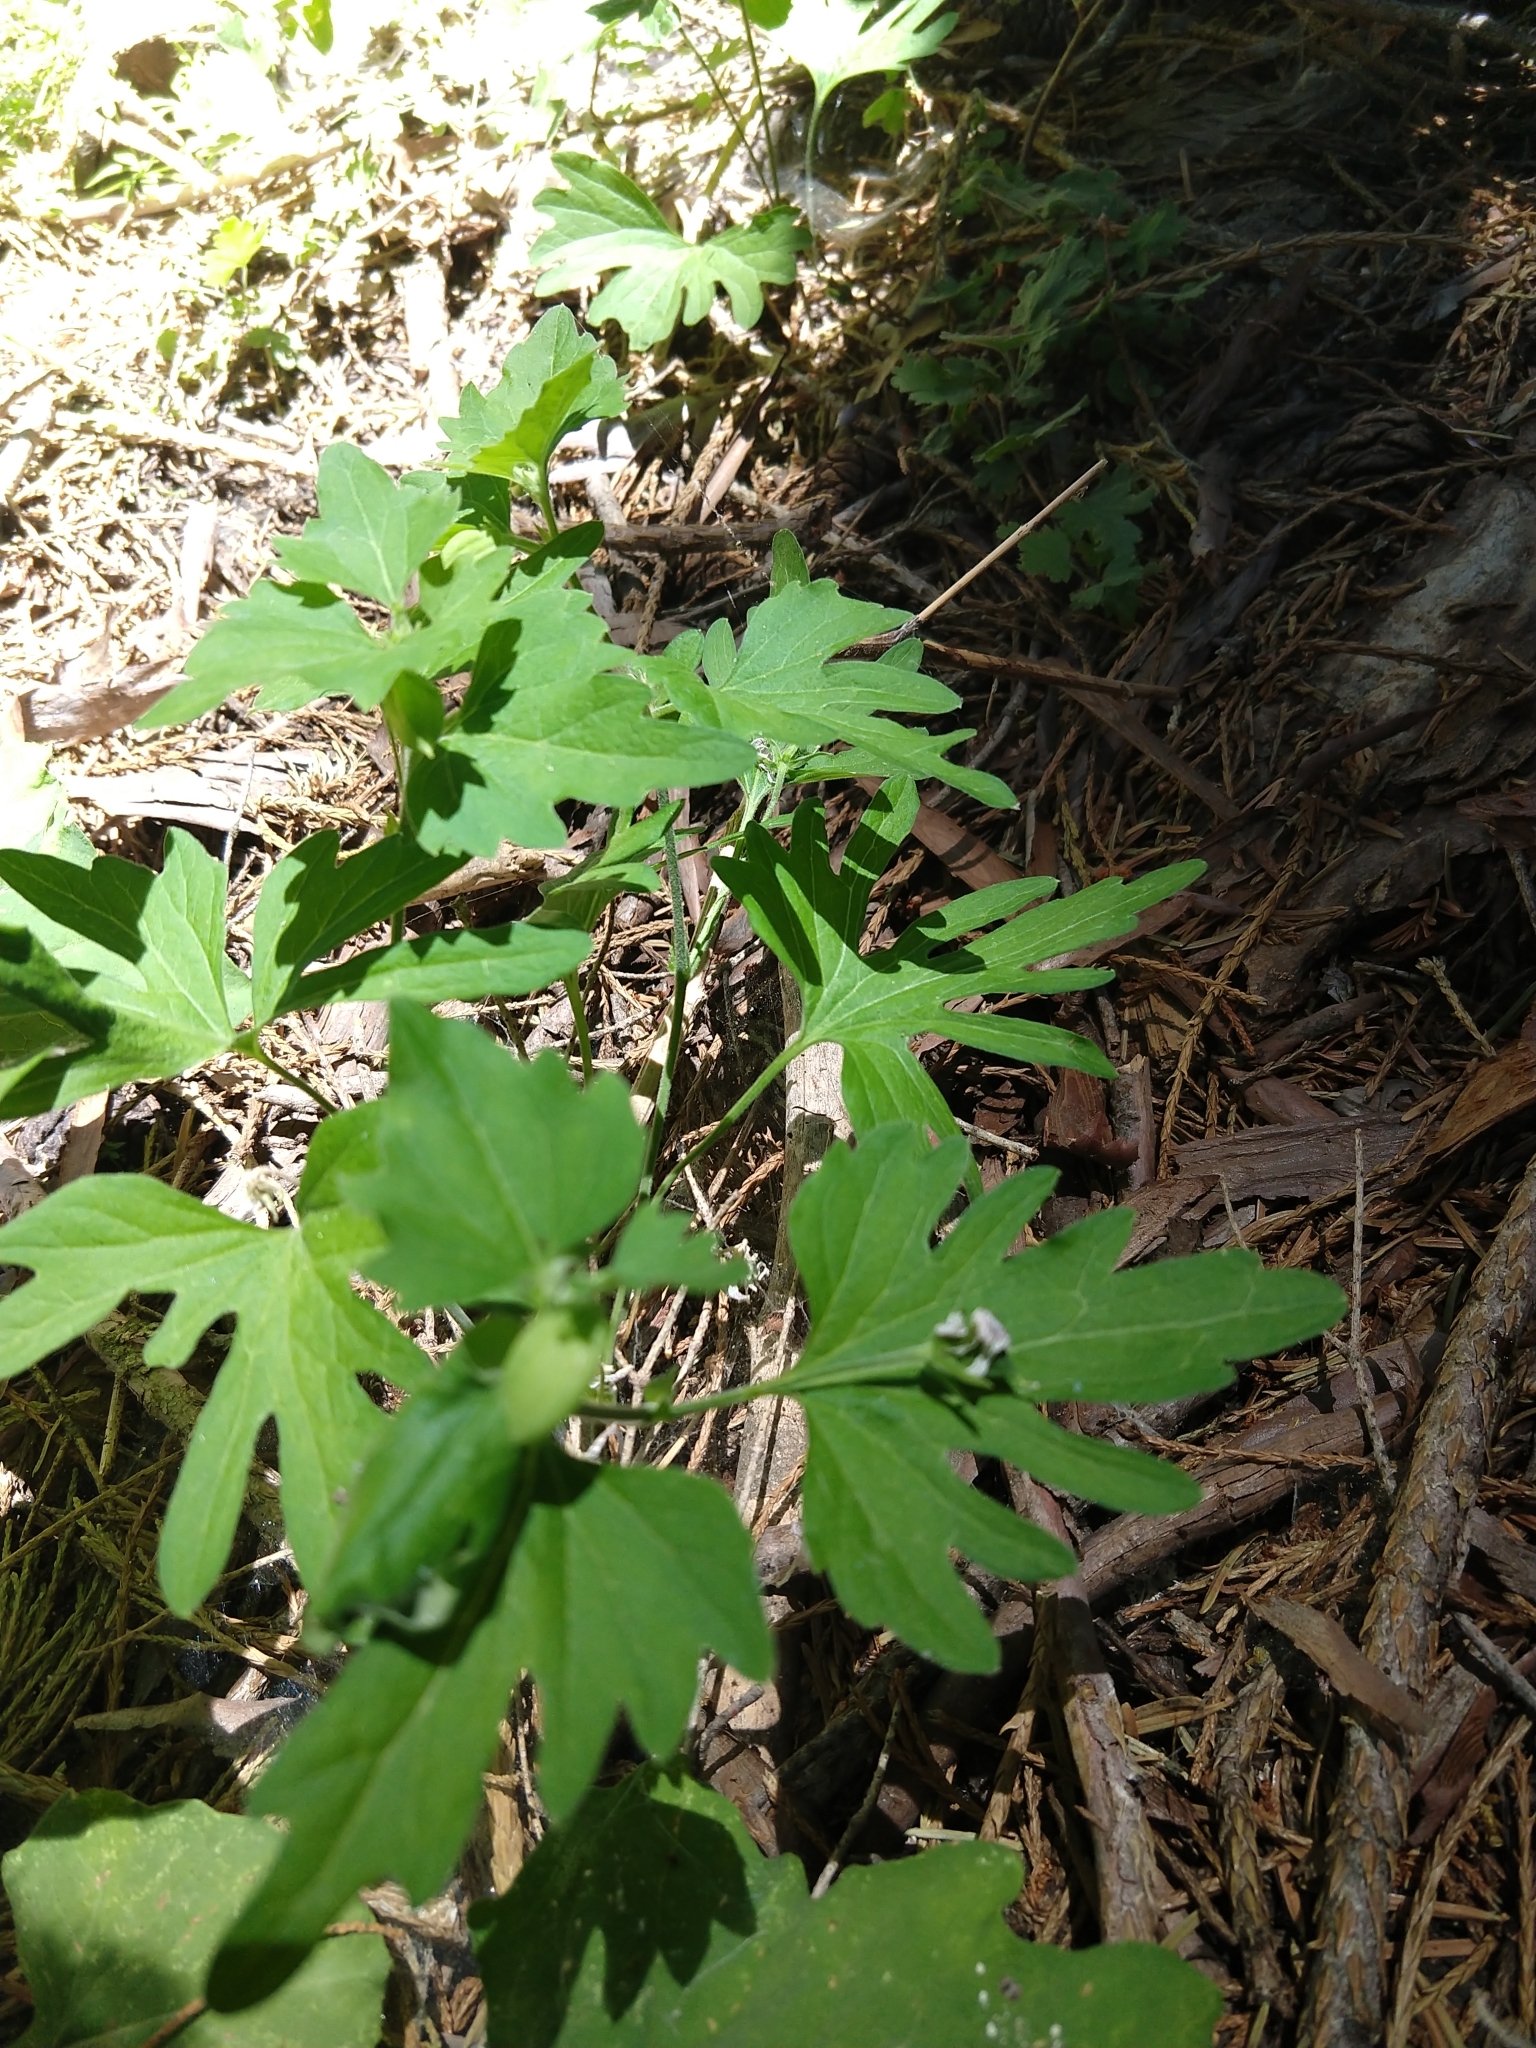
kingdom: Plantae
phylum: Tracheophyta
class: Magnoliopsida
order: Malpighiales
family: Violaceae
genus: Viola
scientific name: Viola lobata
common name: Pine violet
